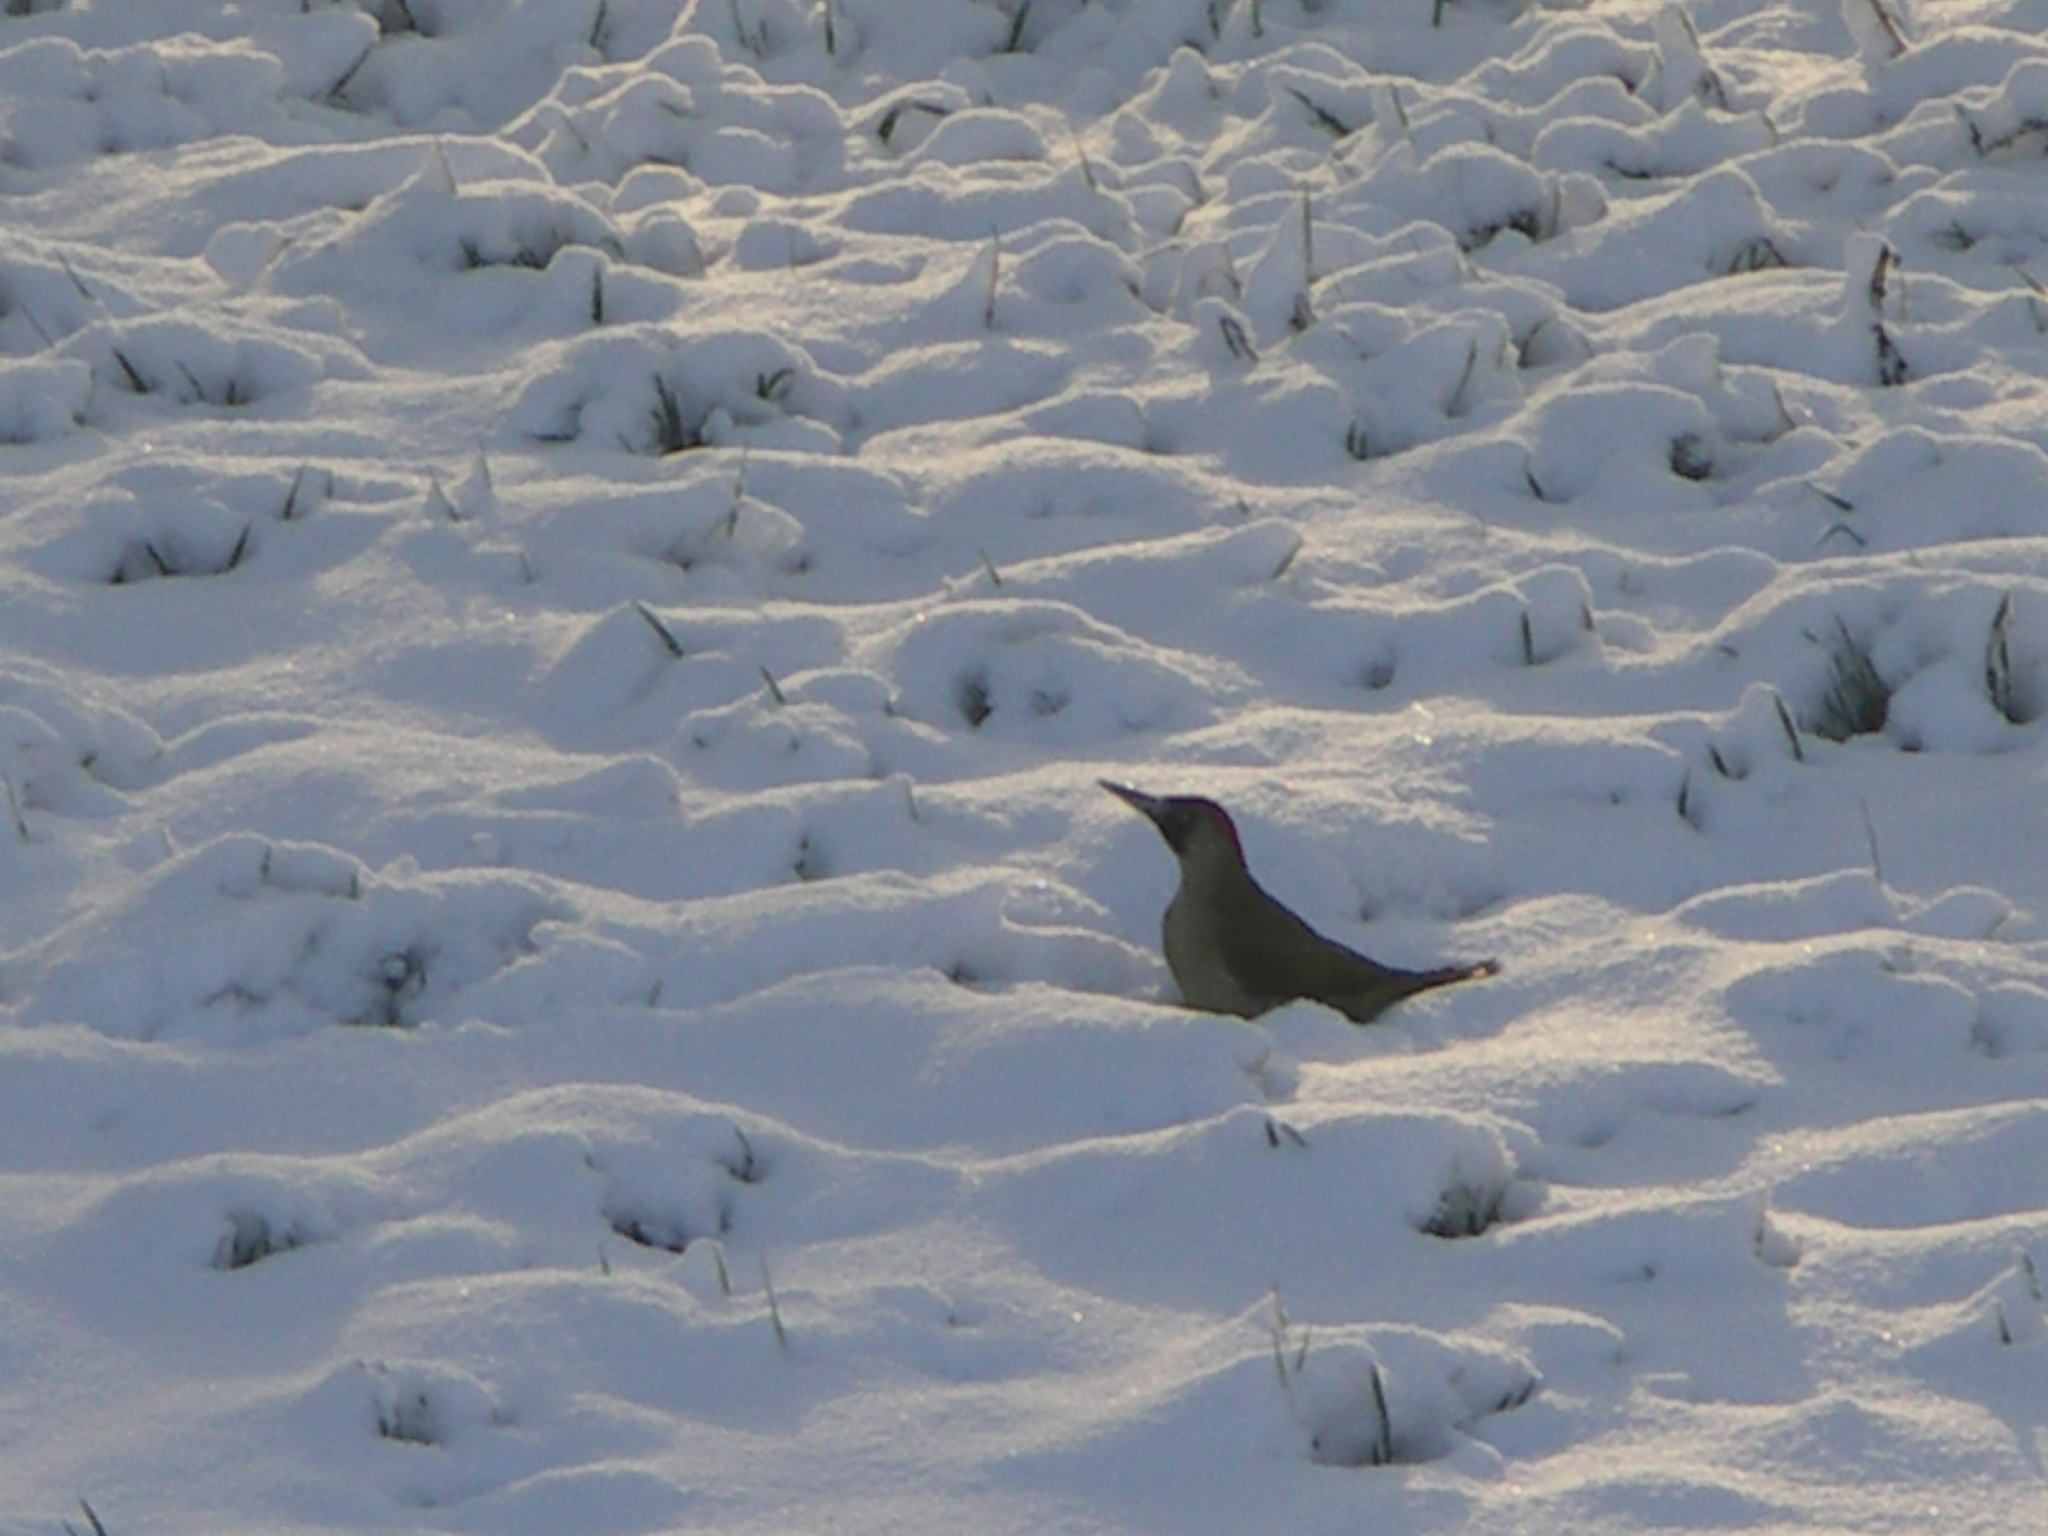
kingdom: Animalia
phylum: Chordata
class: Aves
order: Piciformes
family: Picidae
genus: Picus
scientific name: Picus viridis
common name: European green woodpecker
